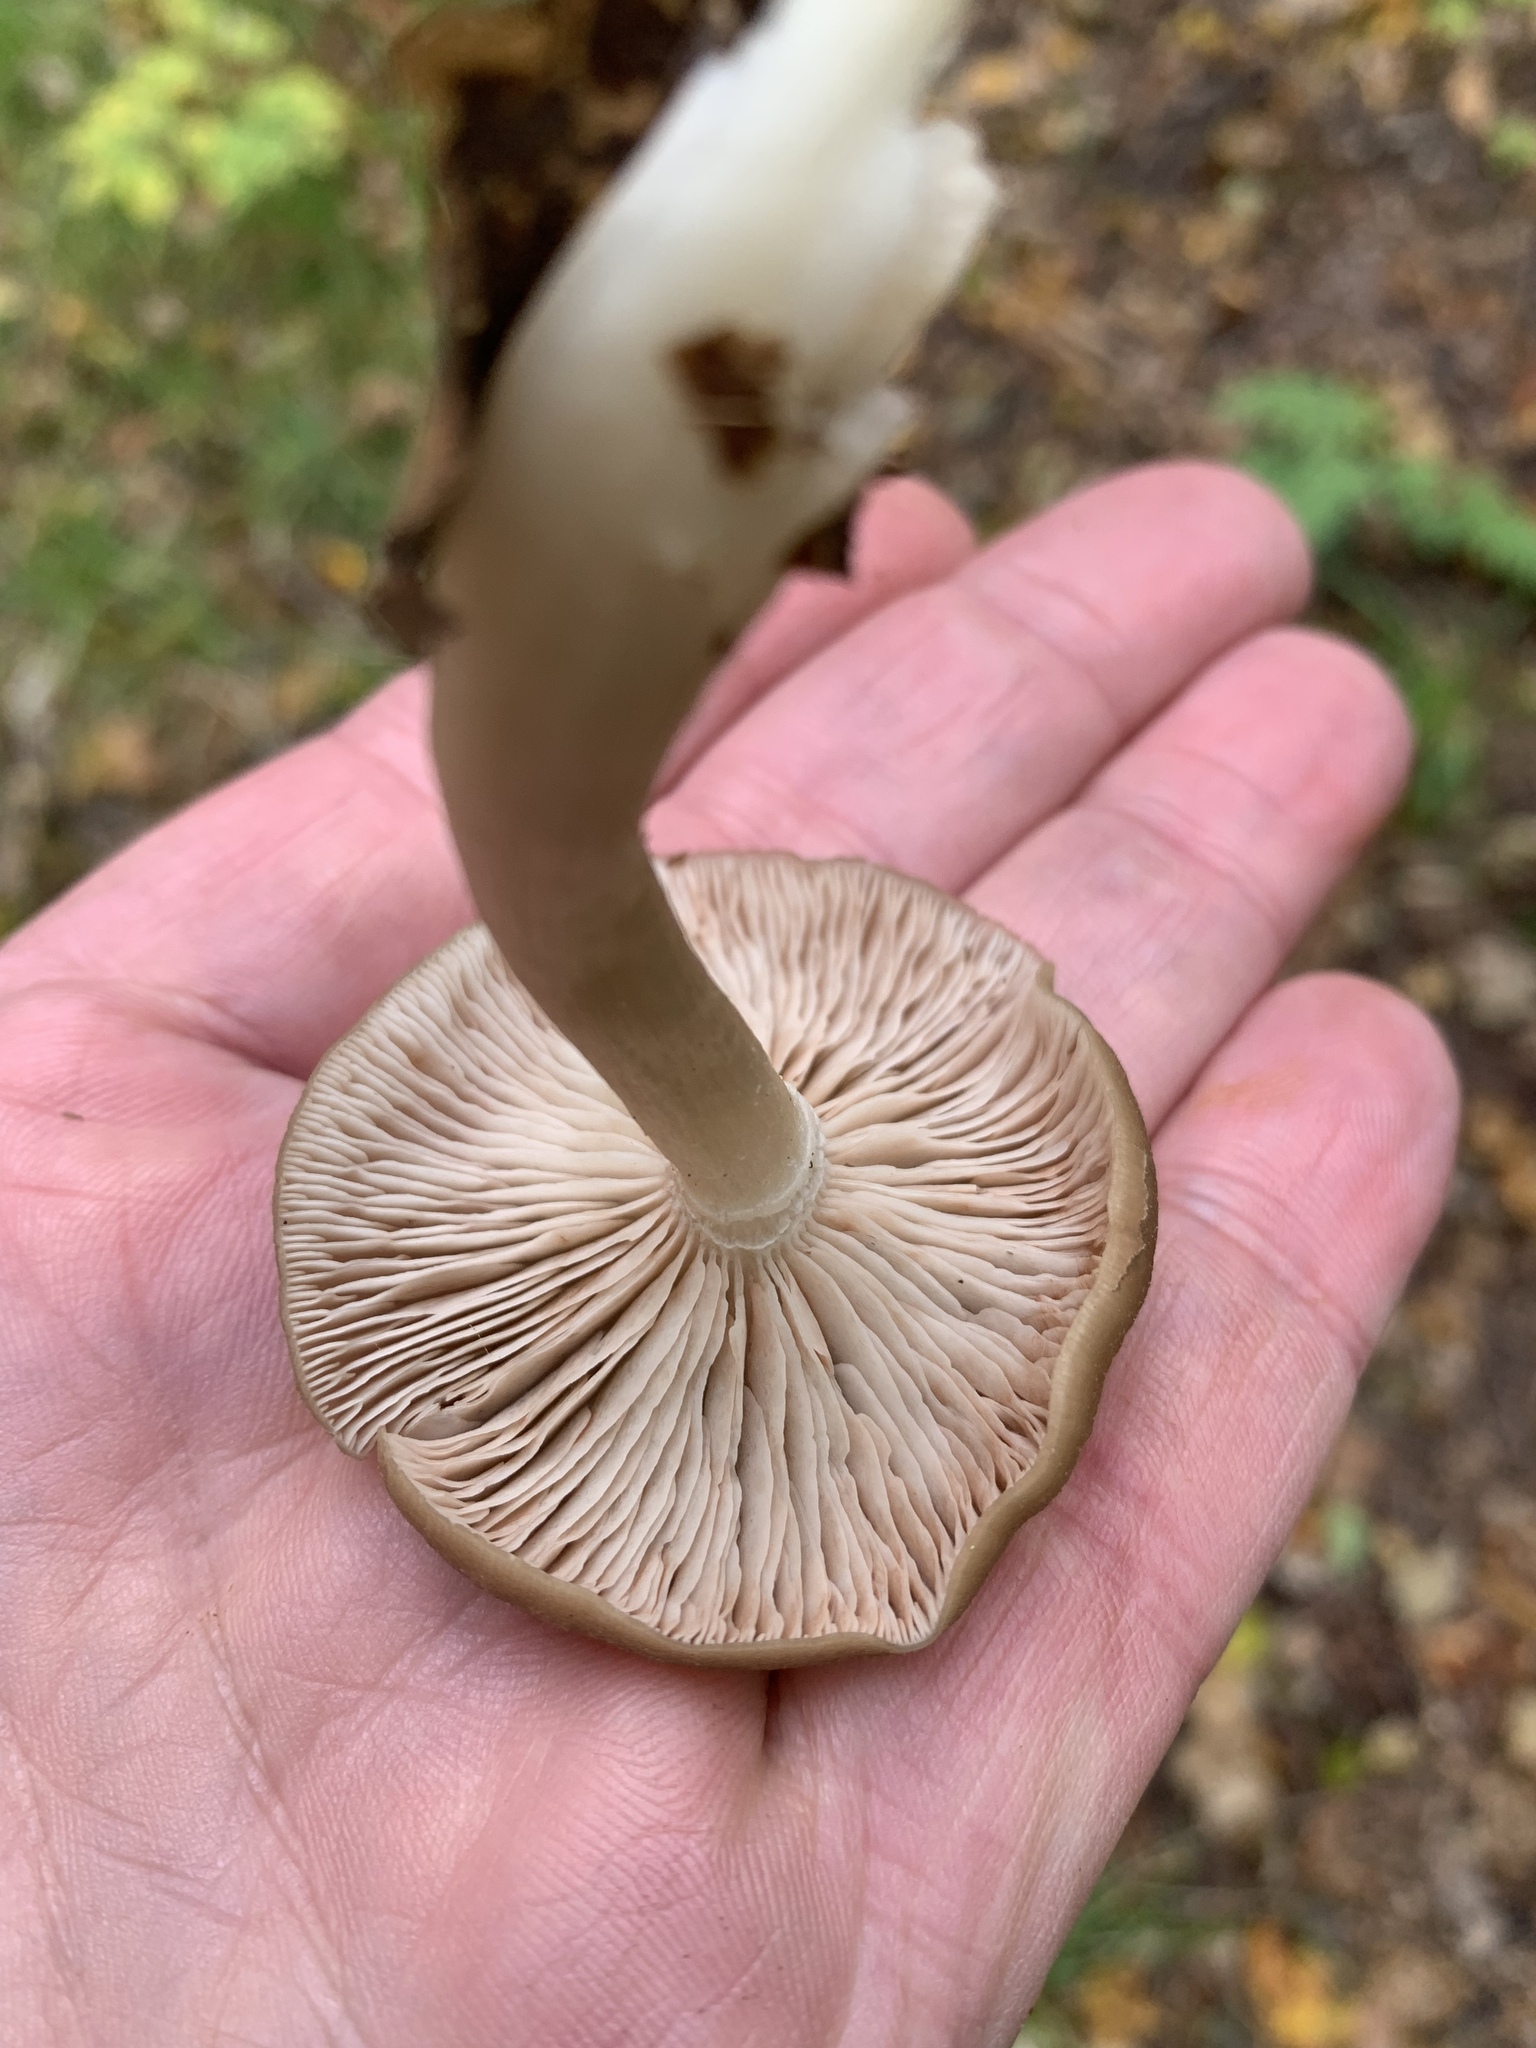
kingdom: Fungi
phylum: Basidiomycota
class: Agaricomycetes
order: Agaricales
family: Entolomataceae
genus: Entoloma
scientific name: Entoloma rhodopolium
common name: Wood pinkgill
